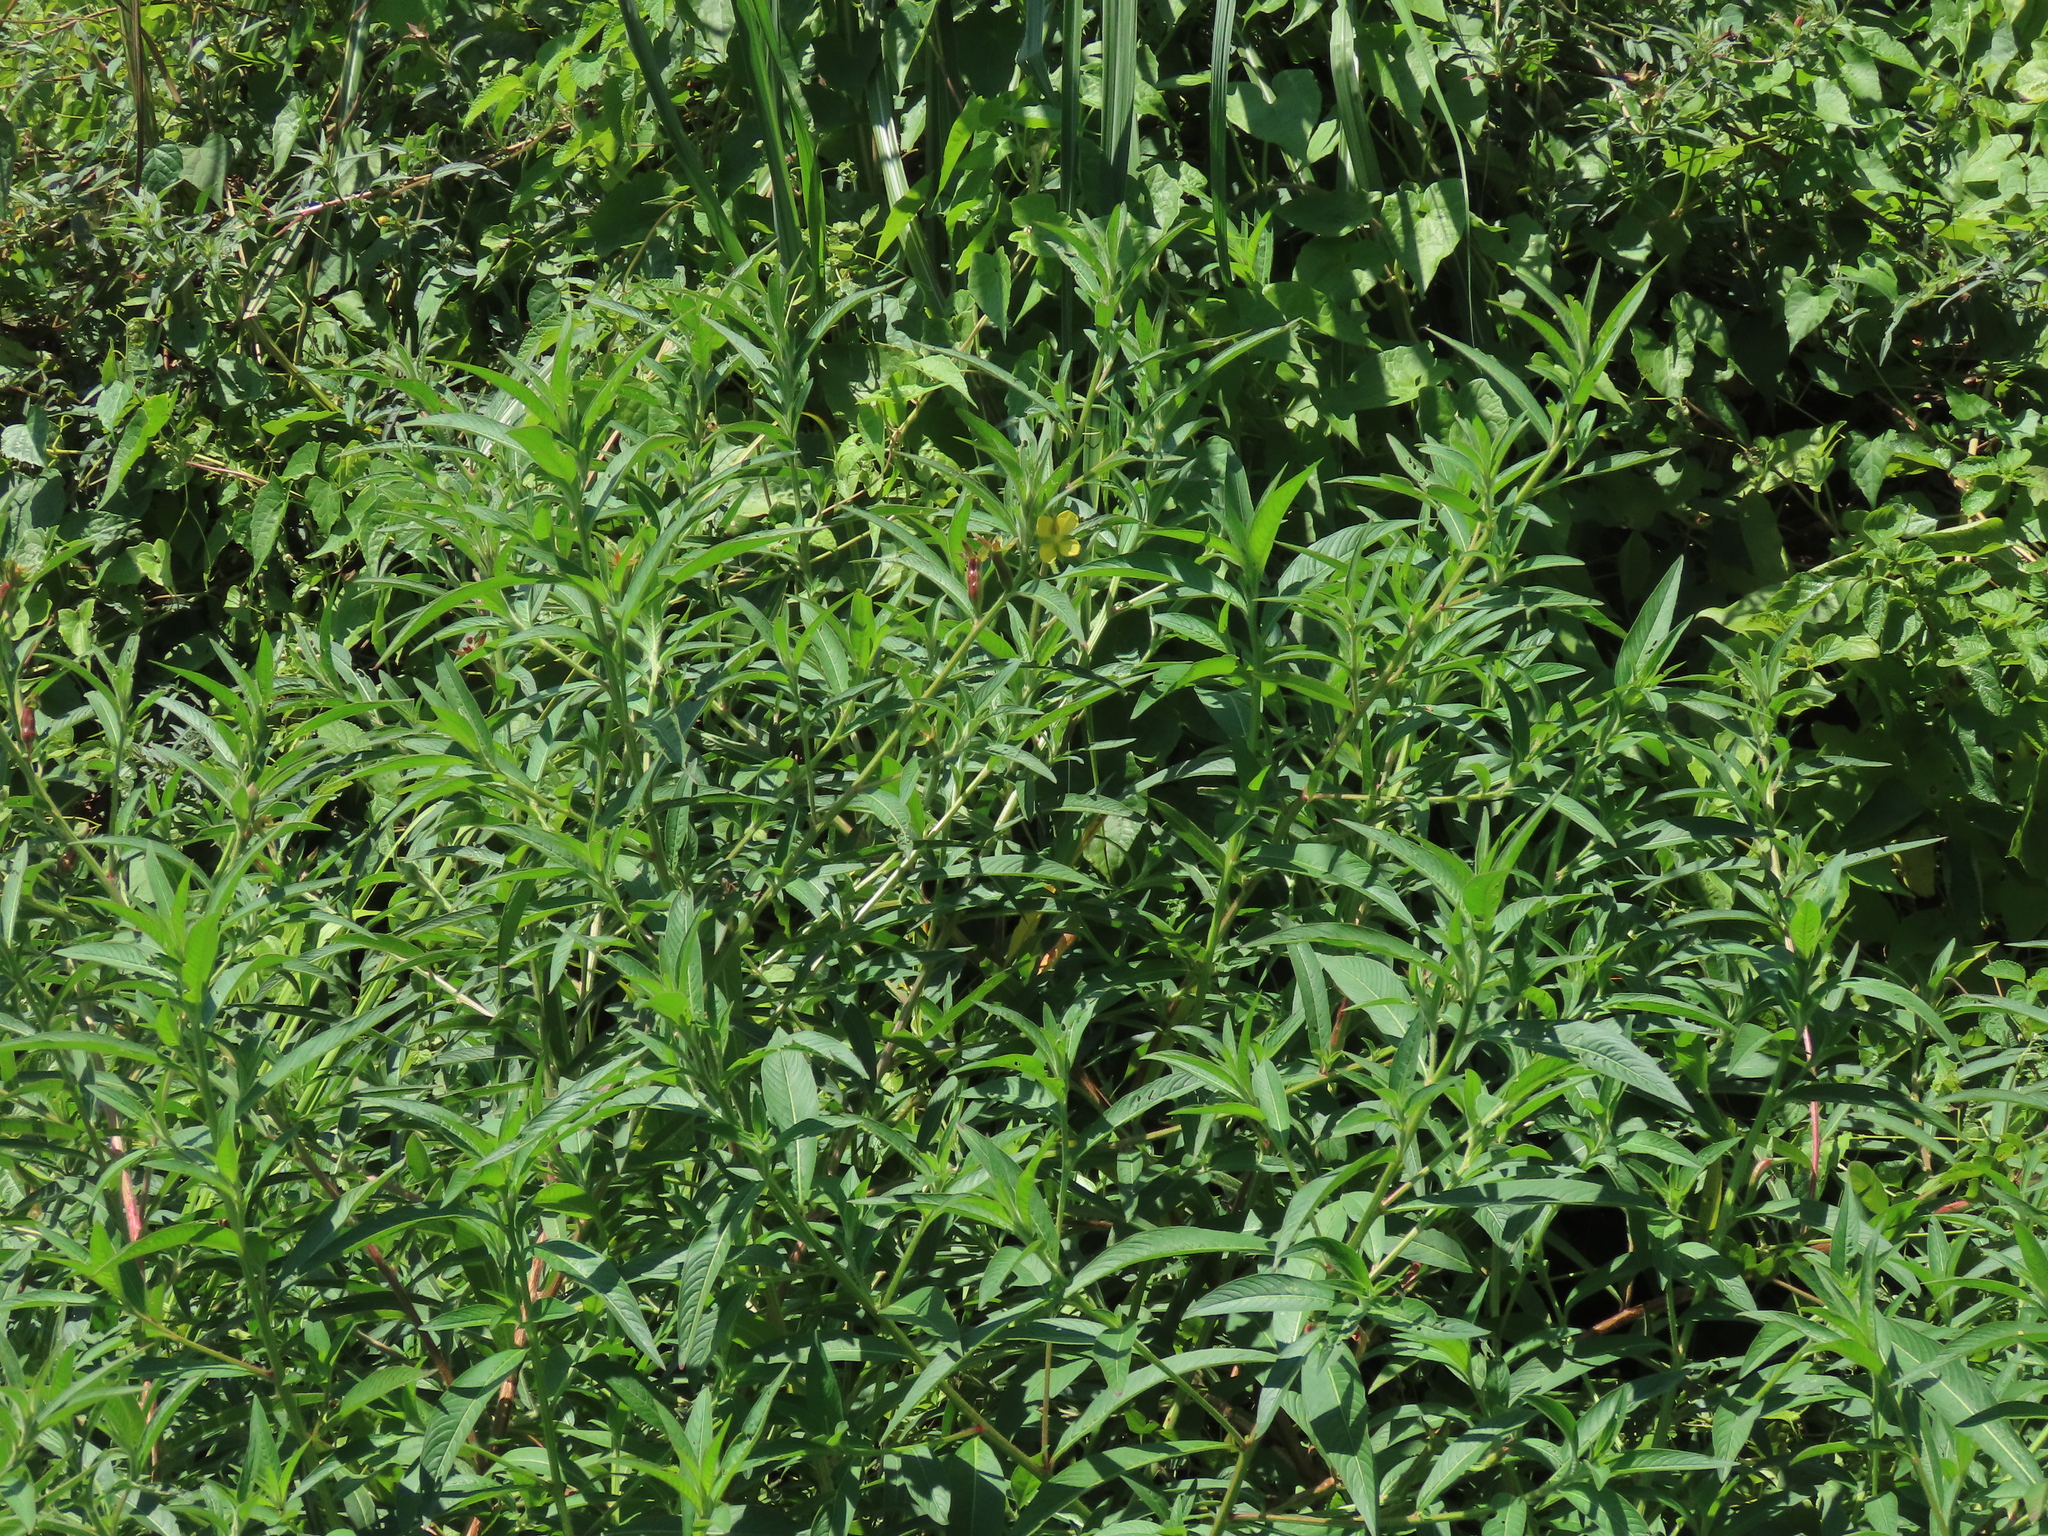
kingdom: Plantae
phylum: Tracheophyta
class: Magnoliopsida
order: Myrtales
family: Onagraceae
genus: Ludwigia
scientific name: Ludwigia octovalvis
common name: Water-primrose
